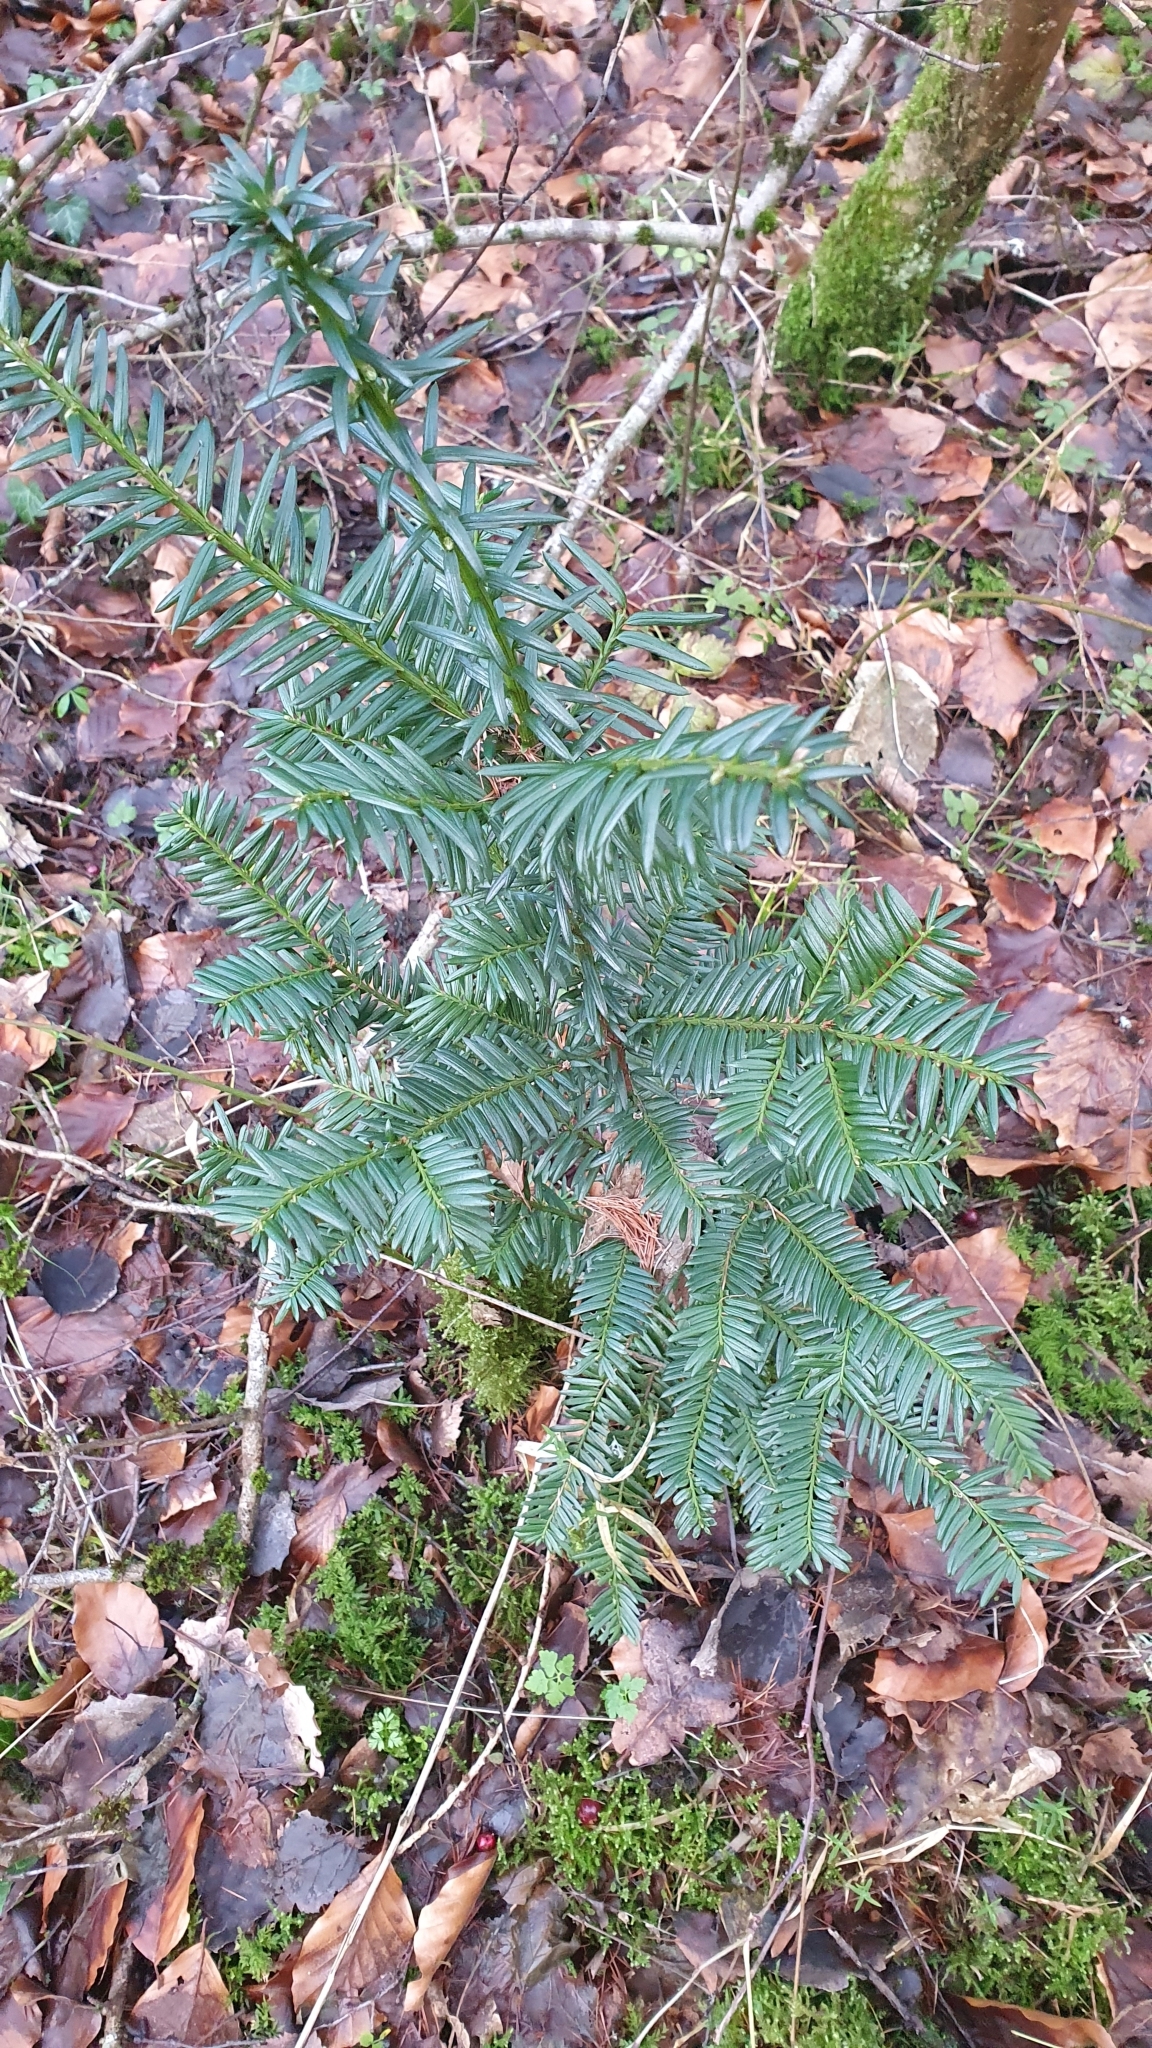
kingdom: Plantae
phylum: Tracheophyta
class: Pinopsida
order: Pinales
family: Taxaceae
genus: Taxus
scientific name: Taxus baccata
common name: Yew
